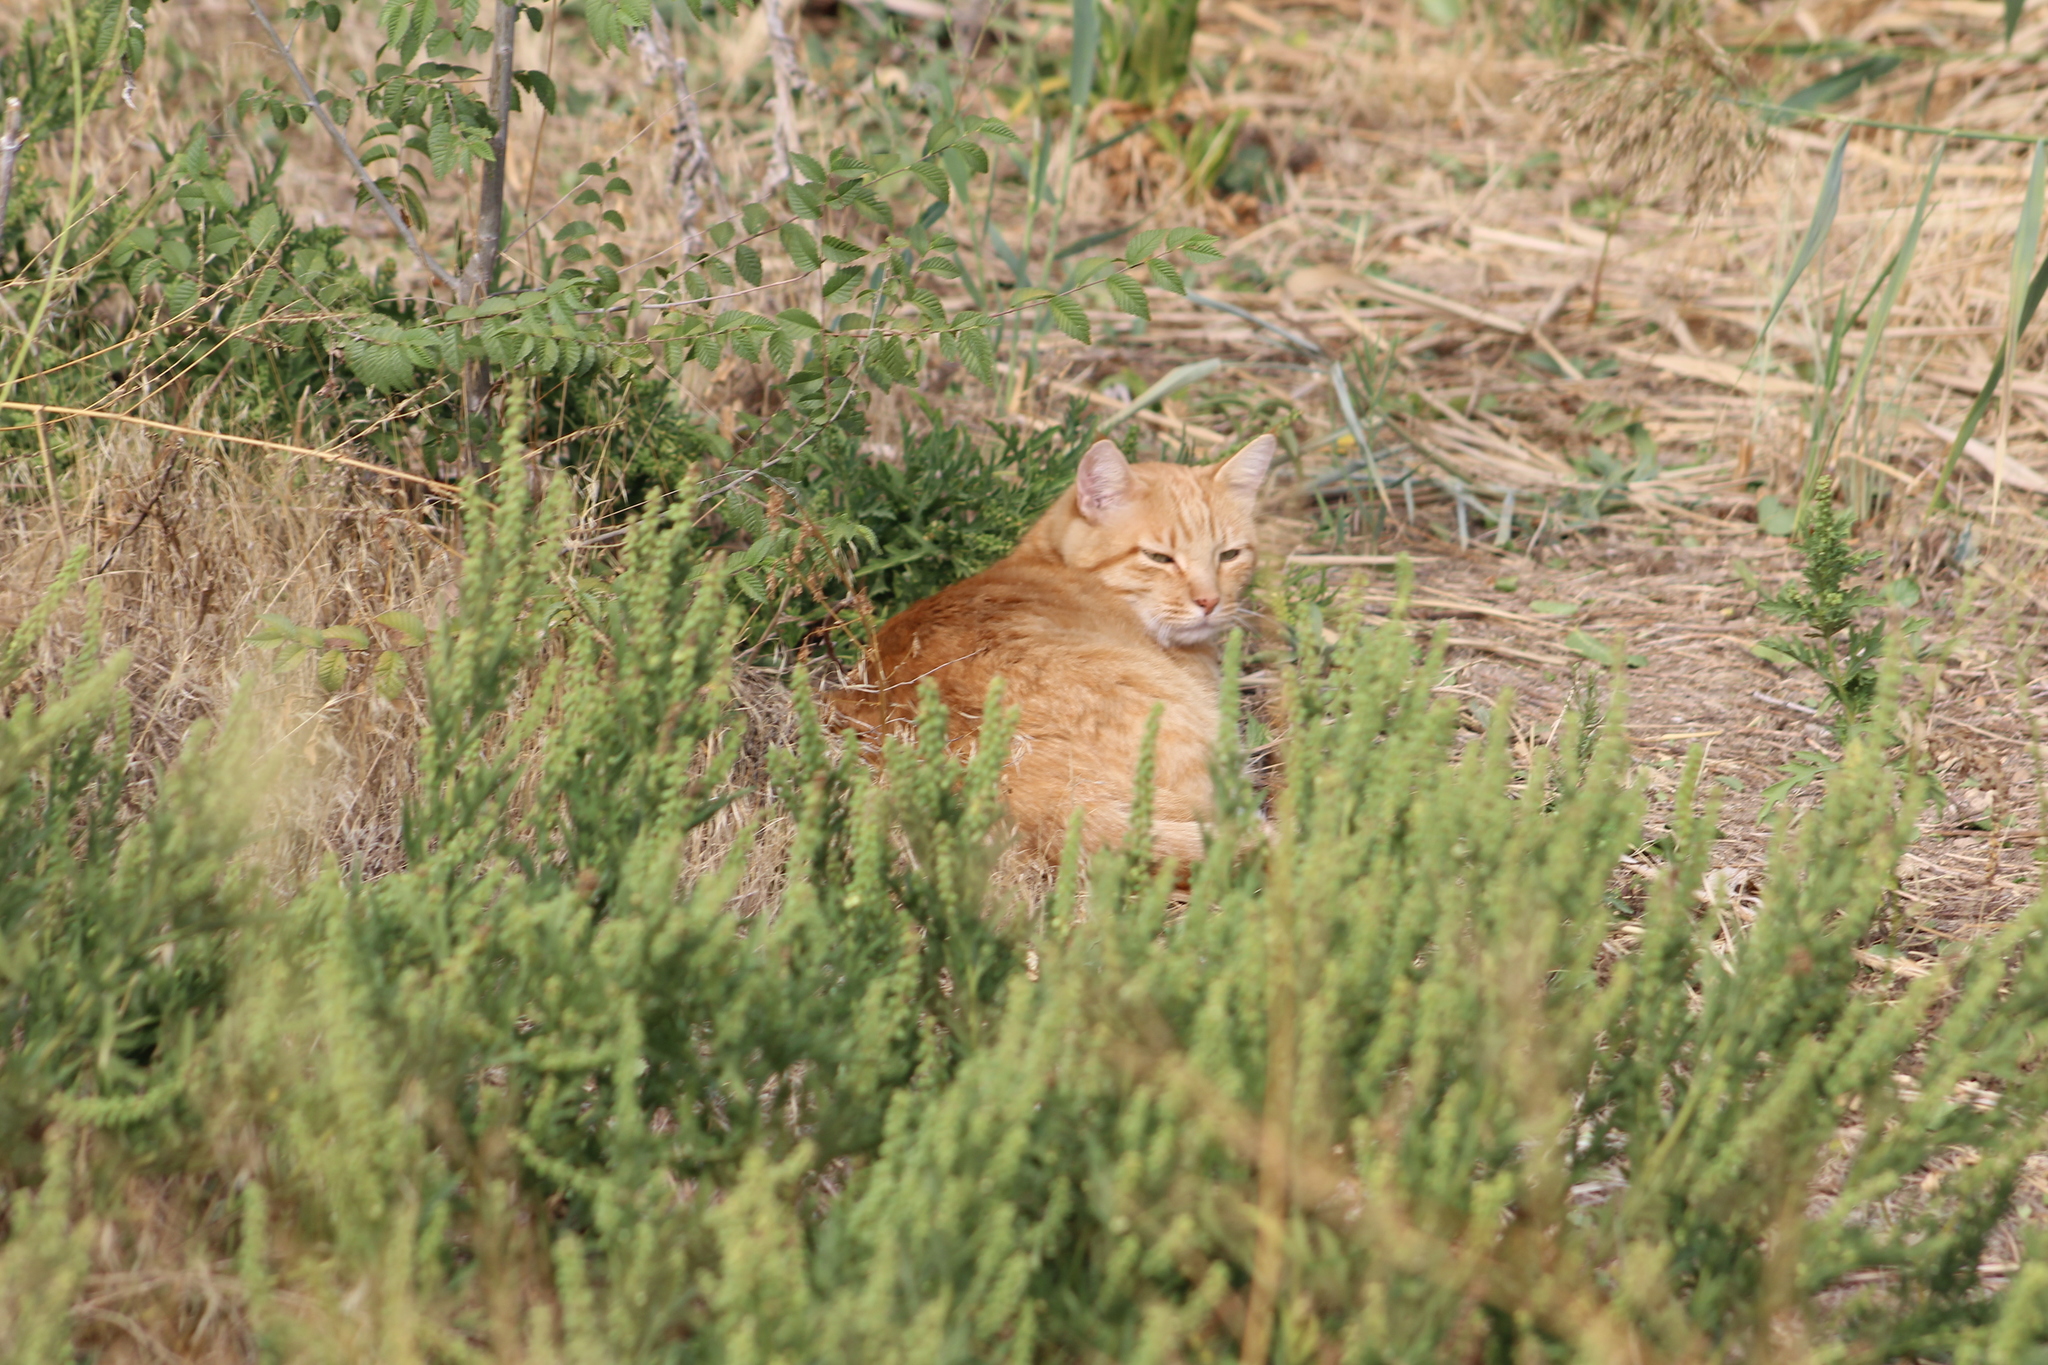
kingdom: Animalia
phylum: Chordata
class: Mammalia
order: Carnivora
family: Felidae
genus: Felis
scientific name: Felis catus
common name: Domestic cat
